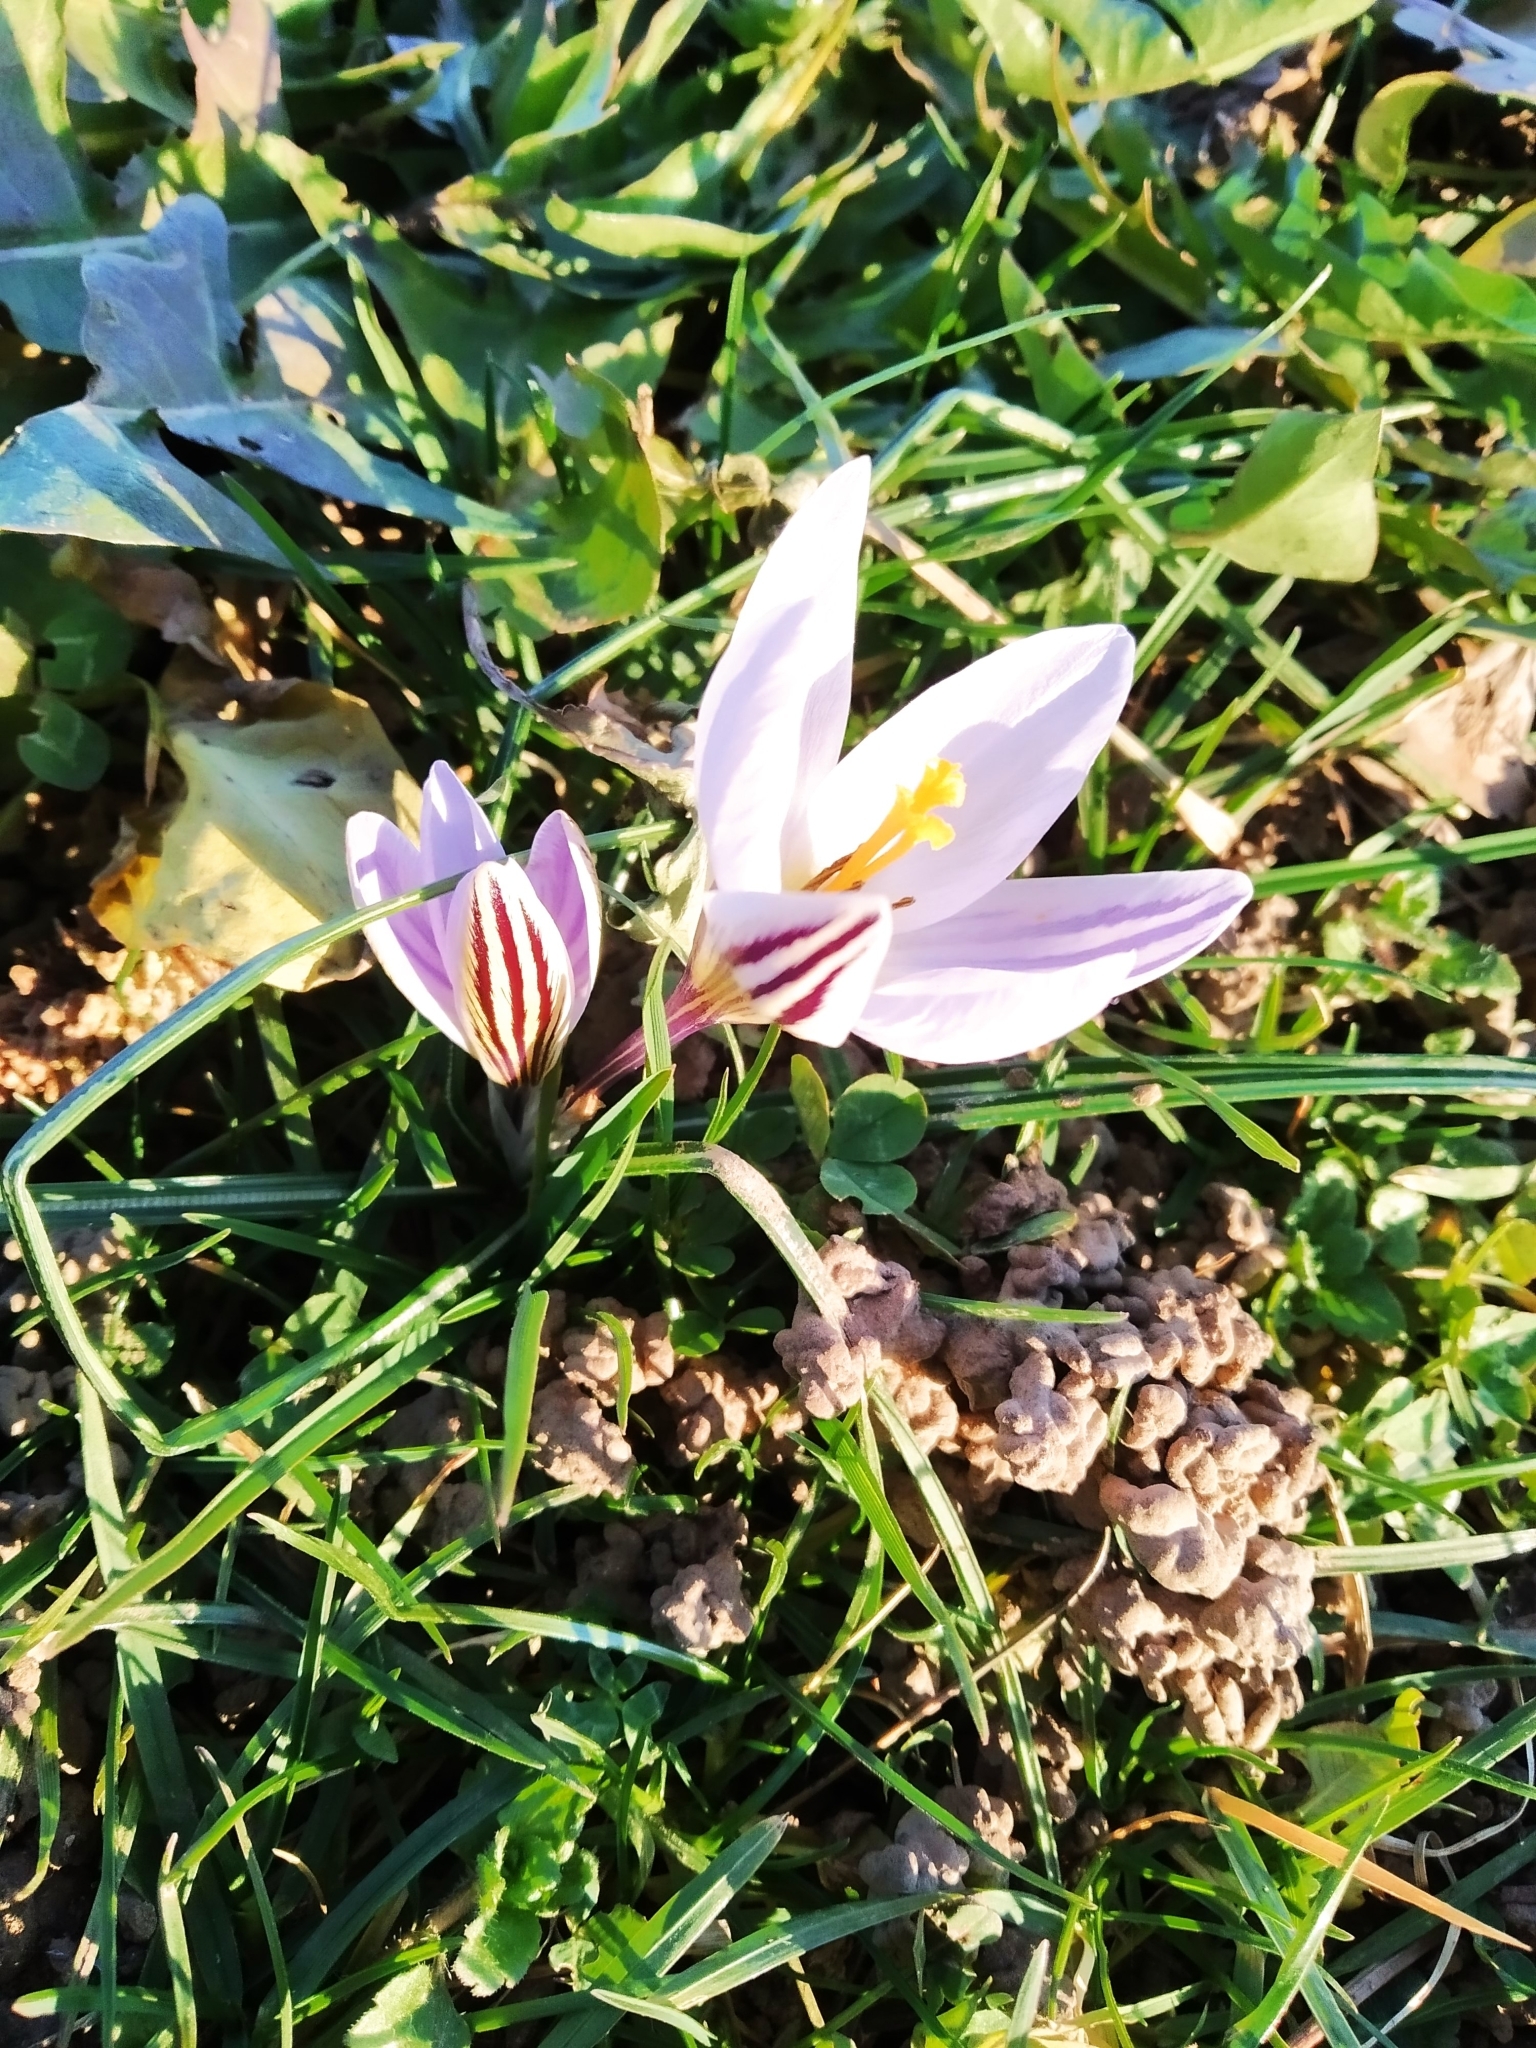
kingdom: Plantae
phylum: Tracheophyta
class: Liliopsida
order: Asparagales
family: Iridaceae
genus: Crocus
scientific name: Crocus biflorus
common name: Silvery crocus
